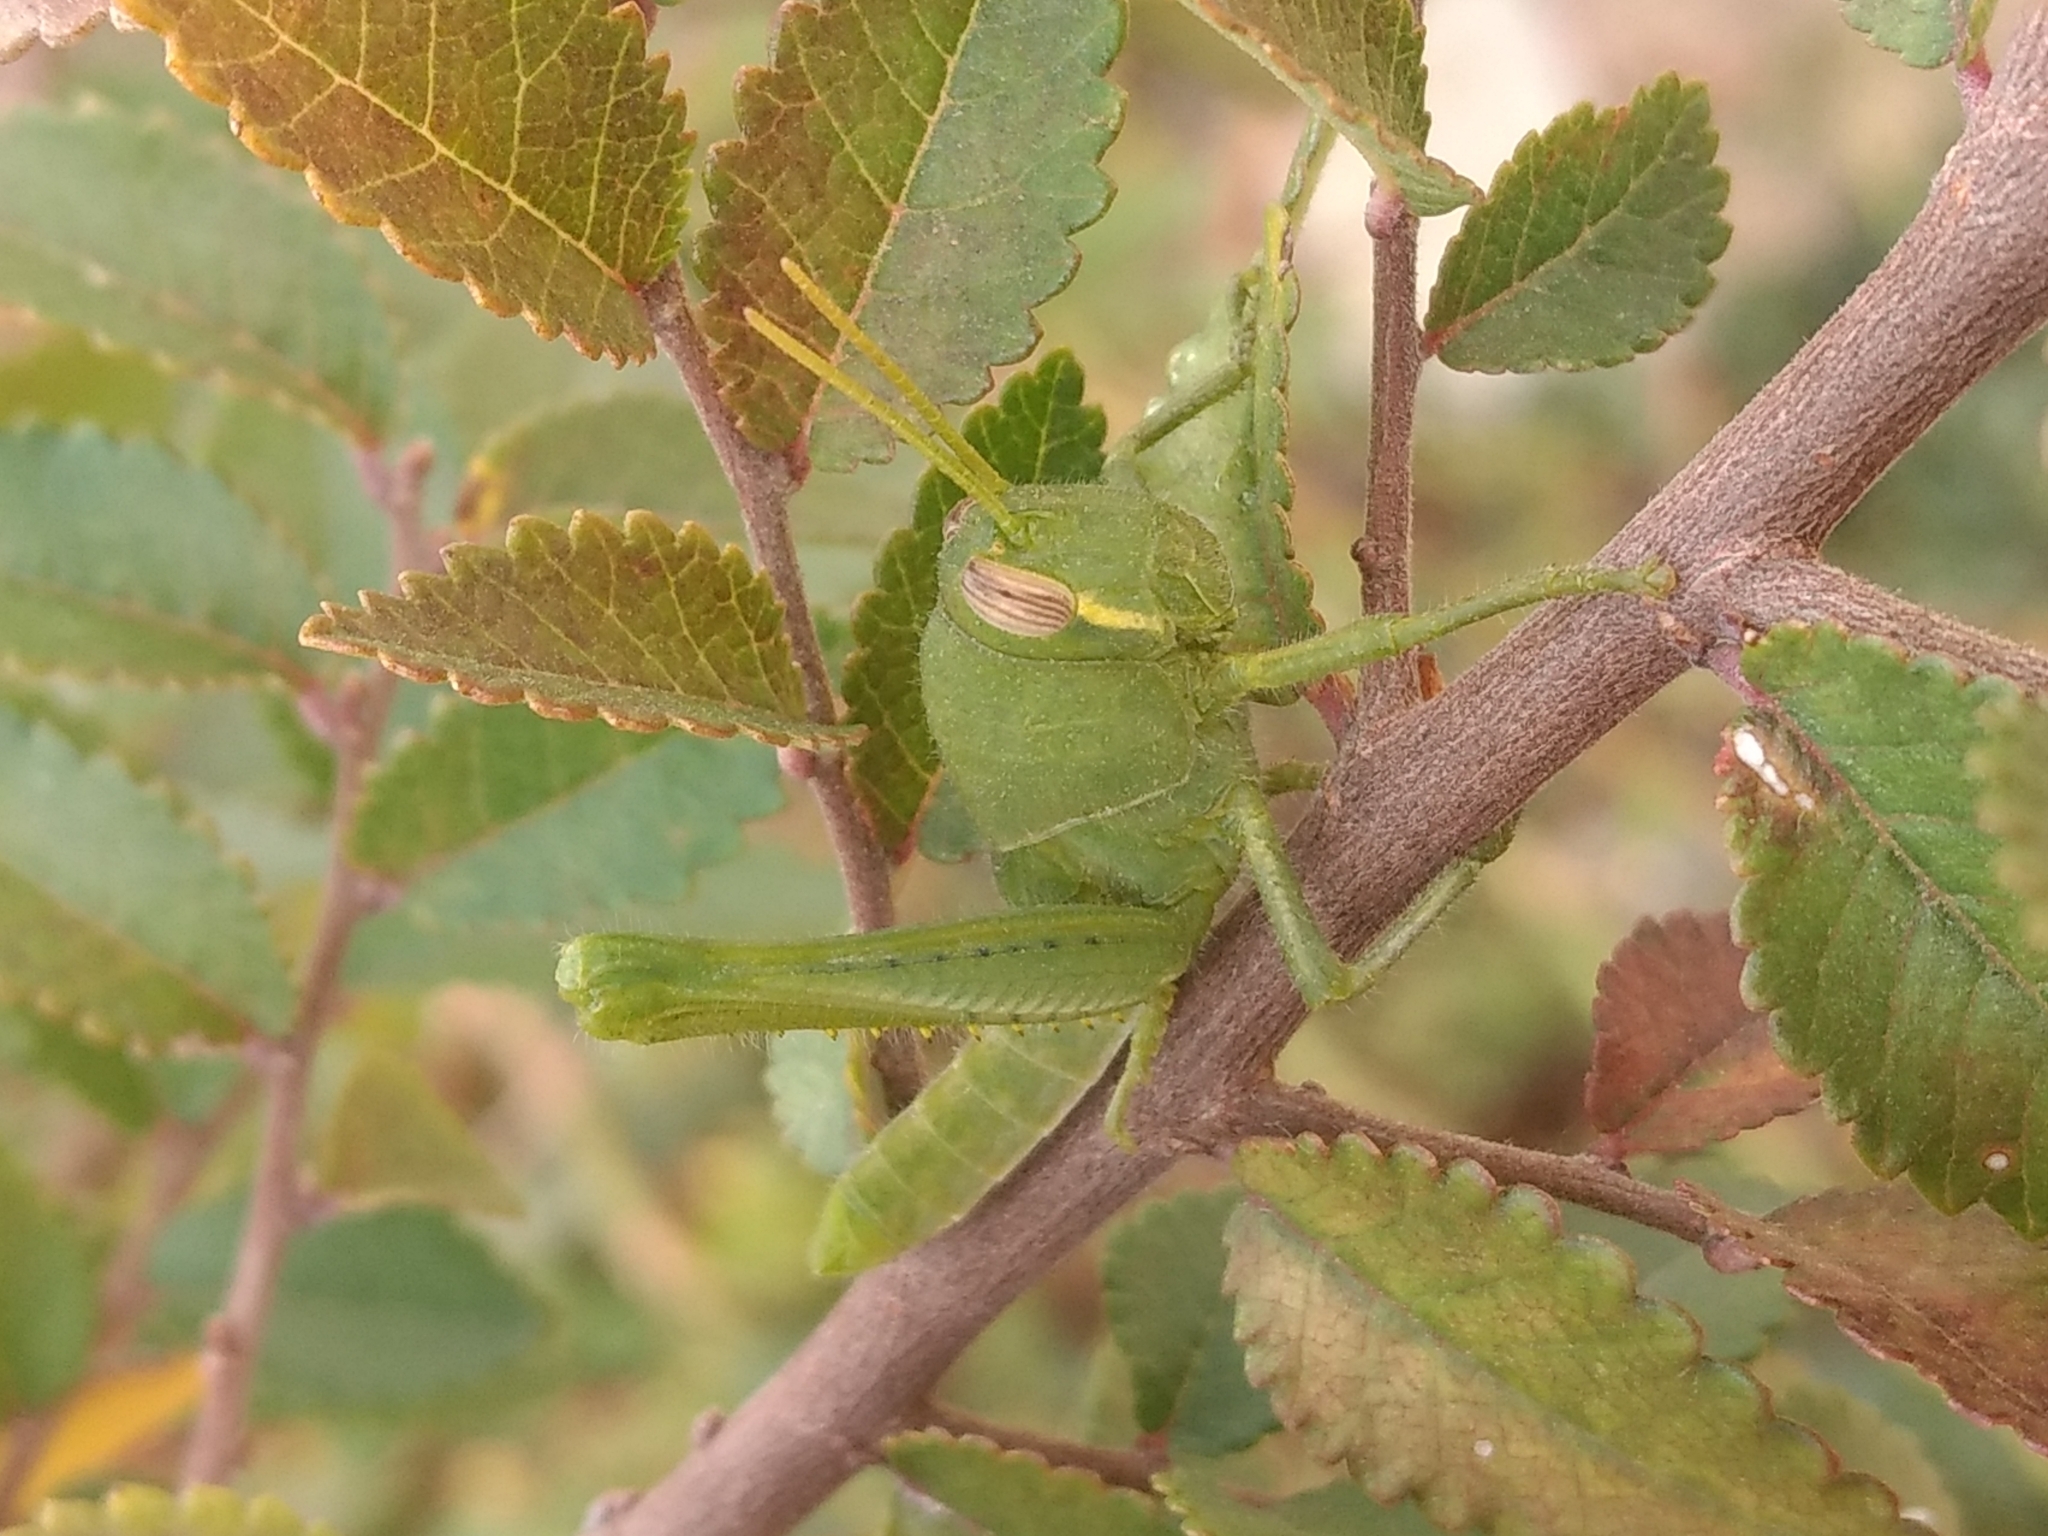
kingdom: Animalia
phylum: Arthropoda
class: Insecta
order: Orthoptera
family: Acrididae
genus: Schistocerca
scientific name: Schistocerca nitens
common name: Vagrant grasshopper
